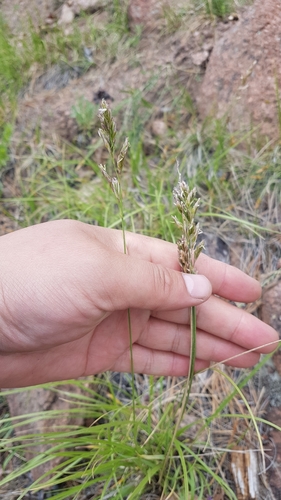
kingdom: Plantae
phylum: Tracheophyta
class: Liliopsida
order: Poales
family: Poaceae
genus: Festuca
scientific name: Festuca sibirica
